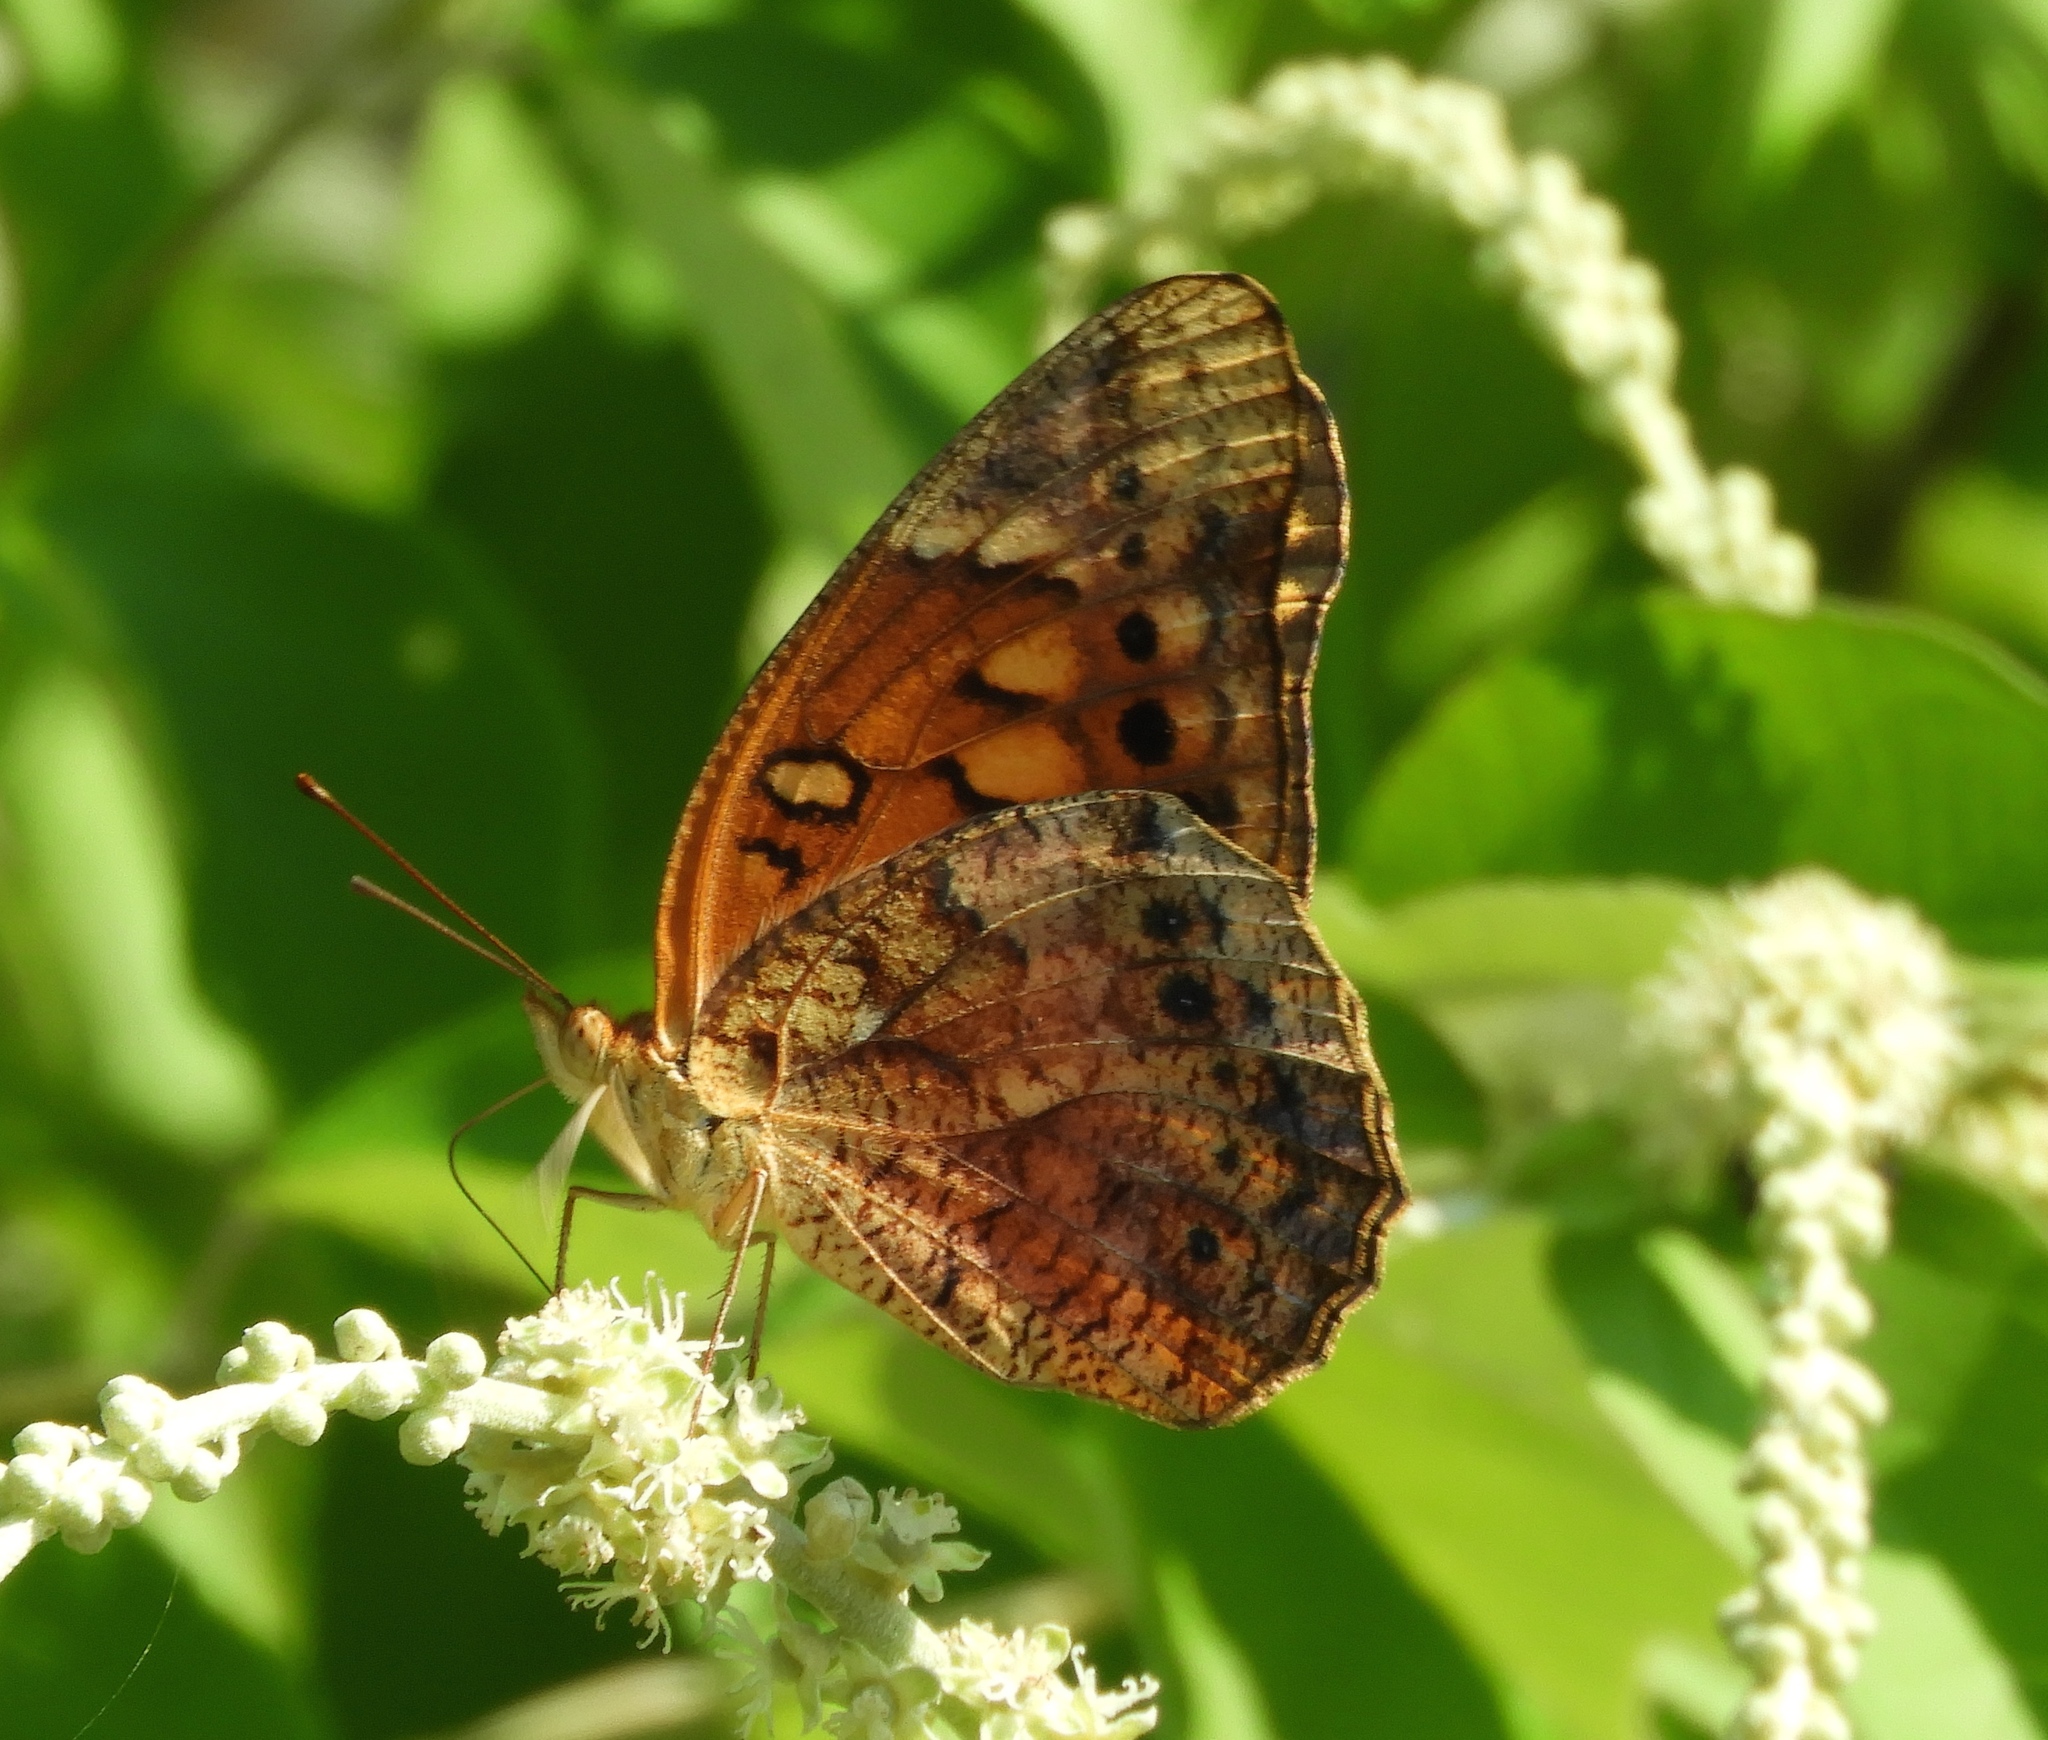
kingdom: Animalia
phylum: Arthropoda
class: Insecta
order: Lepidoptera
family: Nymphalidae
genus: Euptoieta
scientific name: Euptoieta claudia
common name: Variegated fritillary
